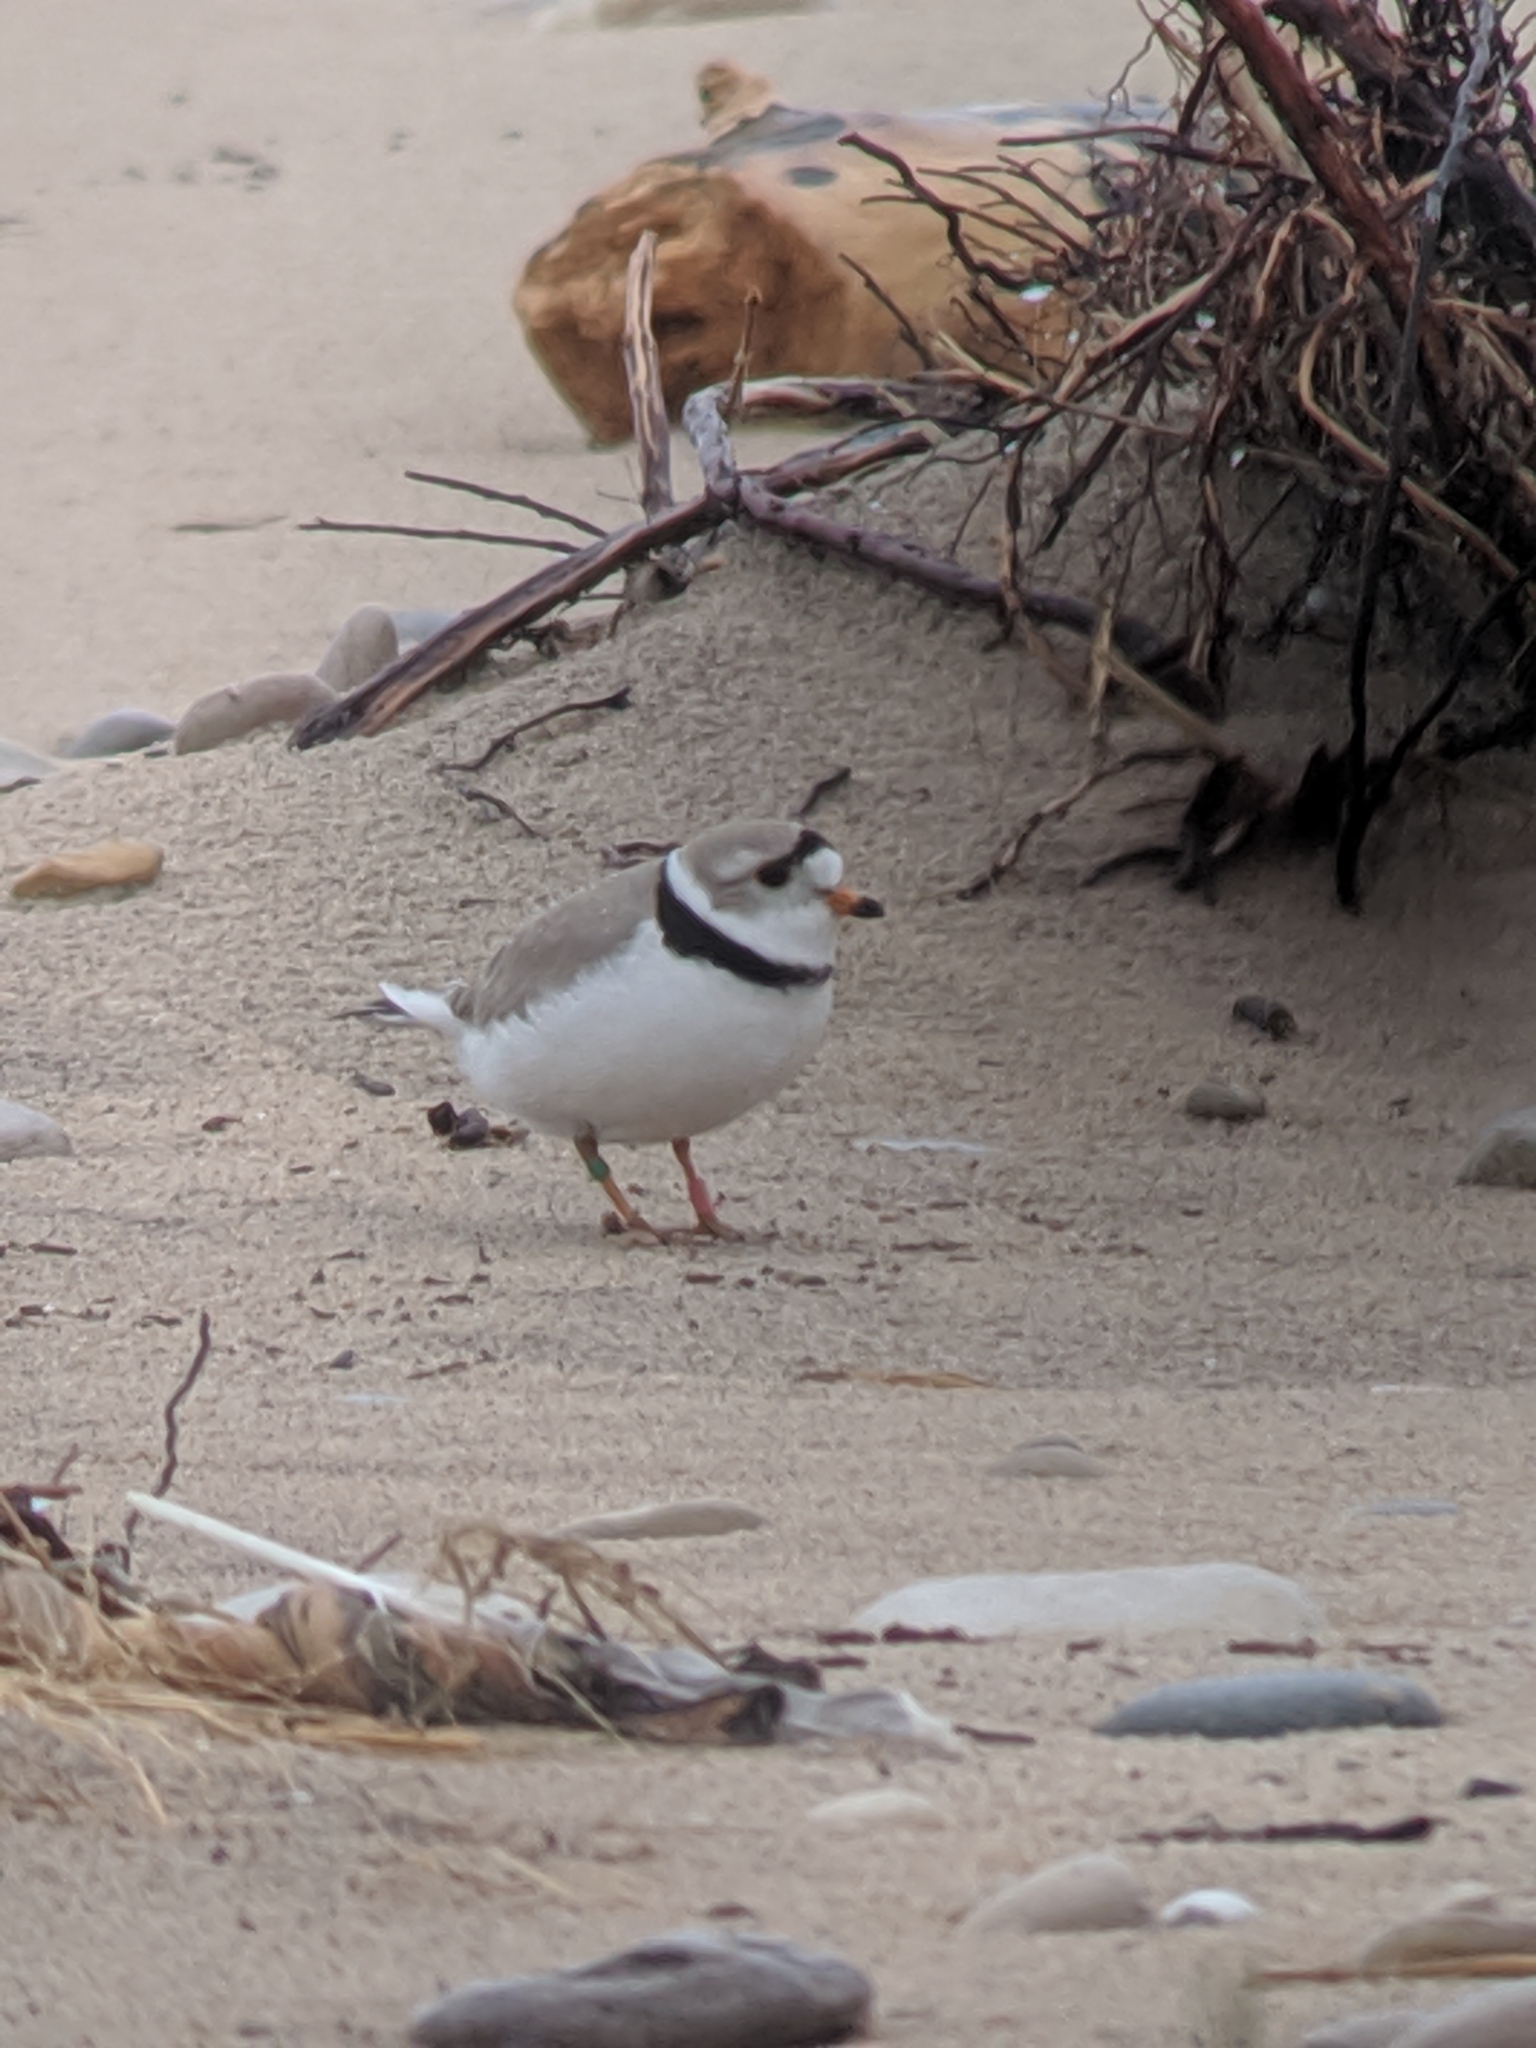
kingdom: Animalia
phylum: Chordata
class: Aves
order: Charadriiformes
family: Charadriidae
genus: Charadrius
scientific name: Charadrius melodus
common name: Piping plover
